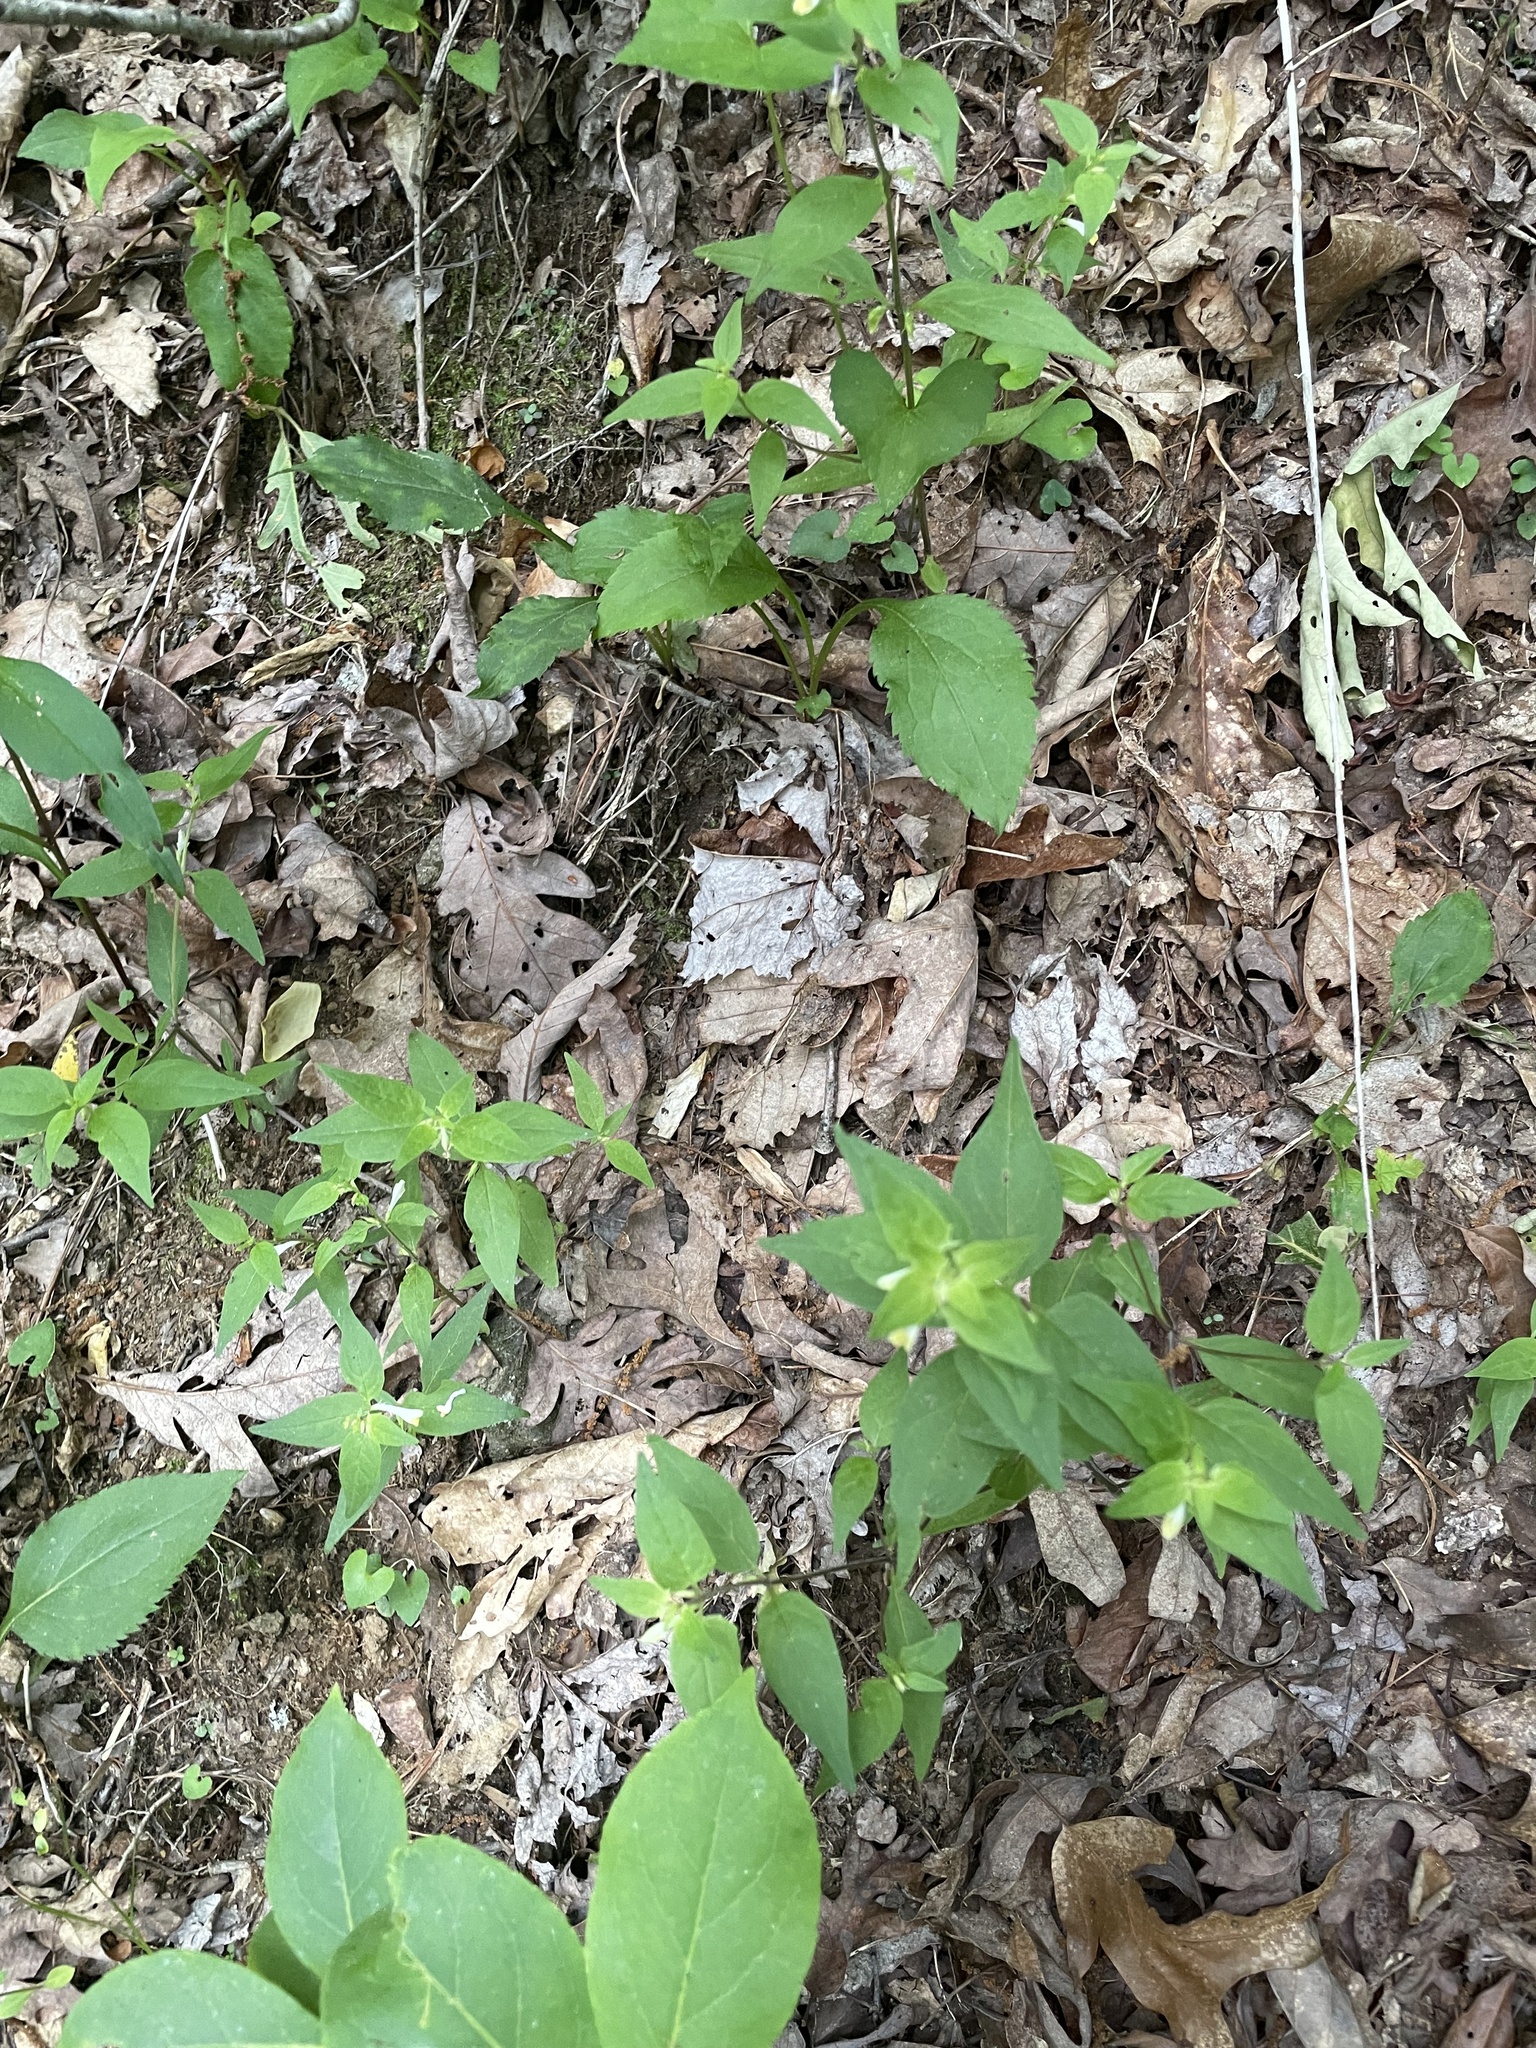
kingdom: Plantae
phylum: Tracheophyta
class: Magnoliopsida
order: Lamiales
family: Orobanchaceae
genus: Melampyrum
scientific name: Melampyrum lineare
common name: American cow-wheat
